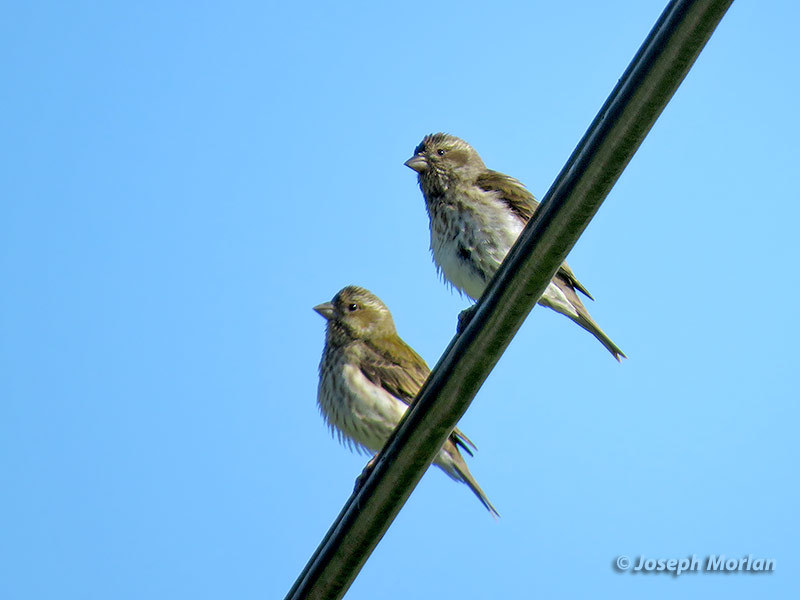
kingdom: Animalia
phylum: Chordata
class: Aves
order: Passeriformes
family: Fringillidae
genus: Haemorhous
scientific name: Haemorhous purpureus
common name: Purple finch
